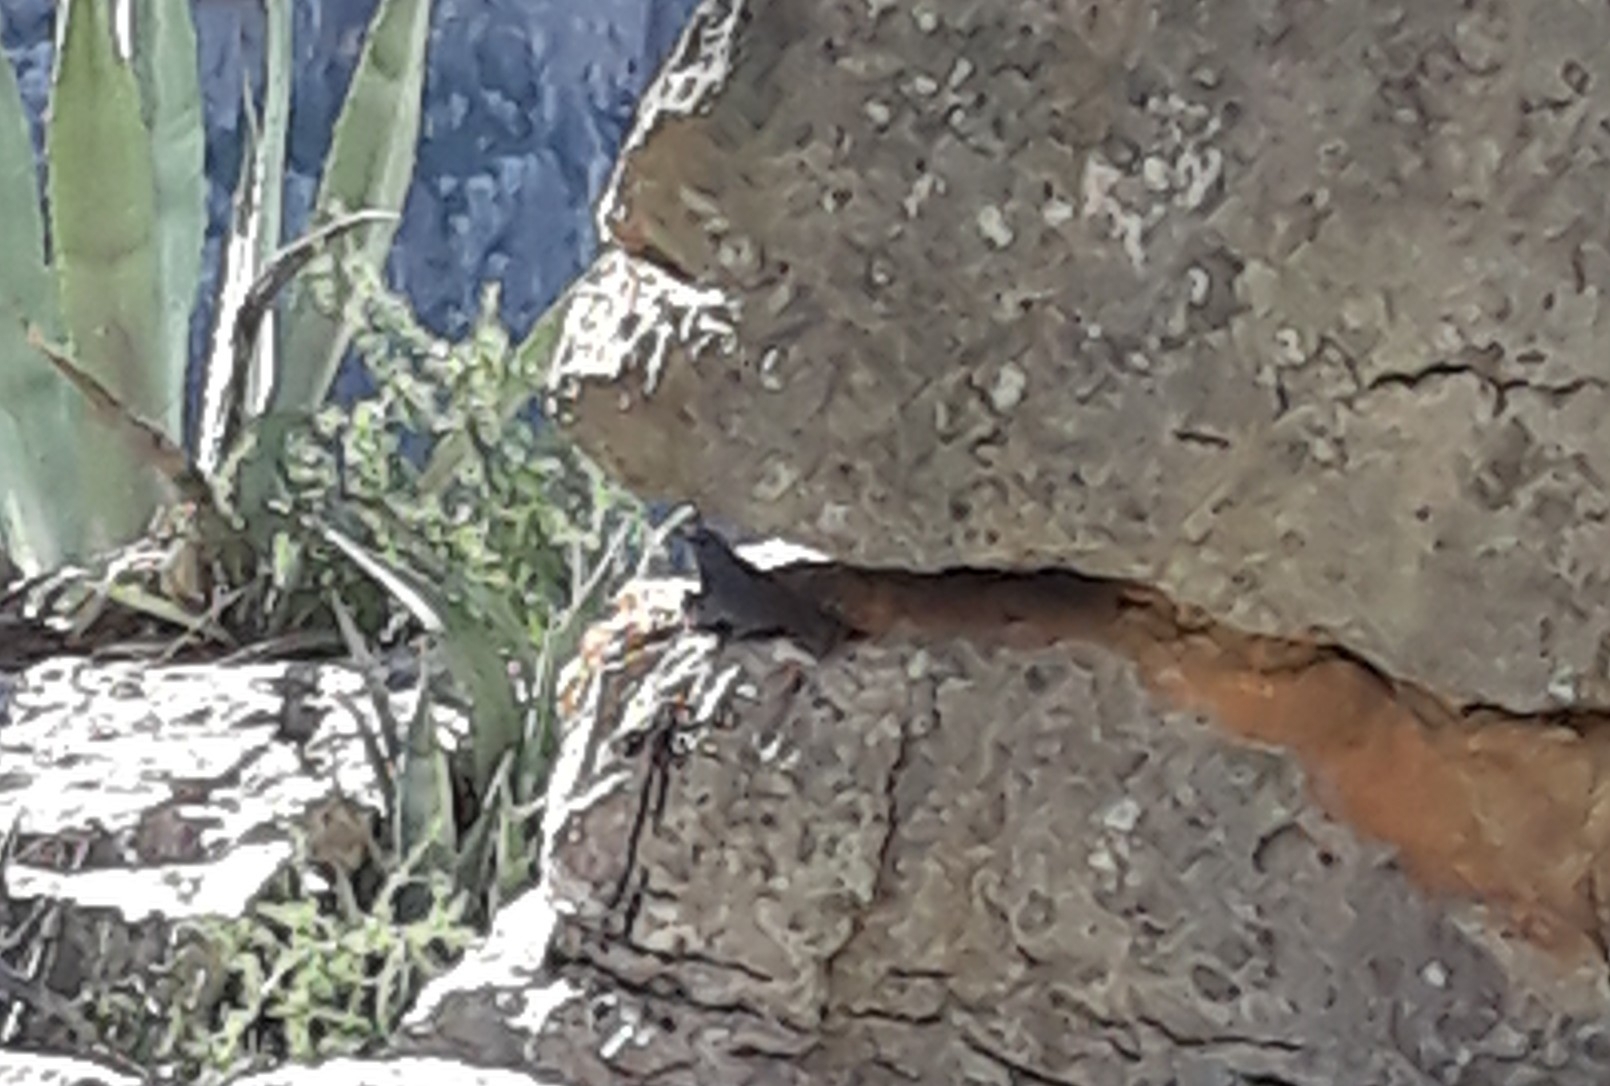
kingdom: Animalia
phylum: Chordata
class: Aves
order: Passeriformes
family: Muscicapidae
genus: Monticola
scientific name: Monticola solitarius
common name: Blue rock thrush
